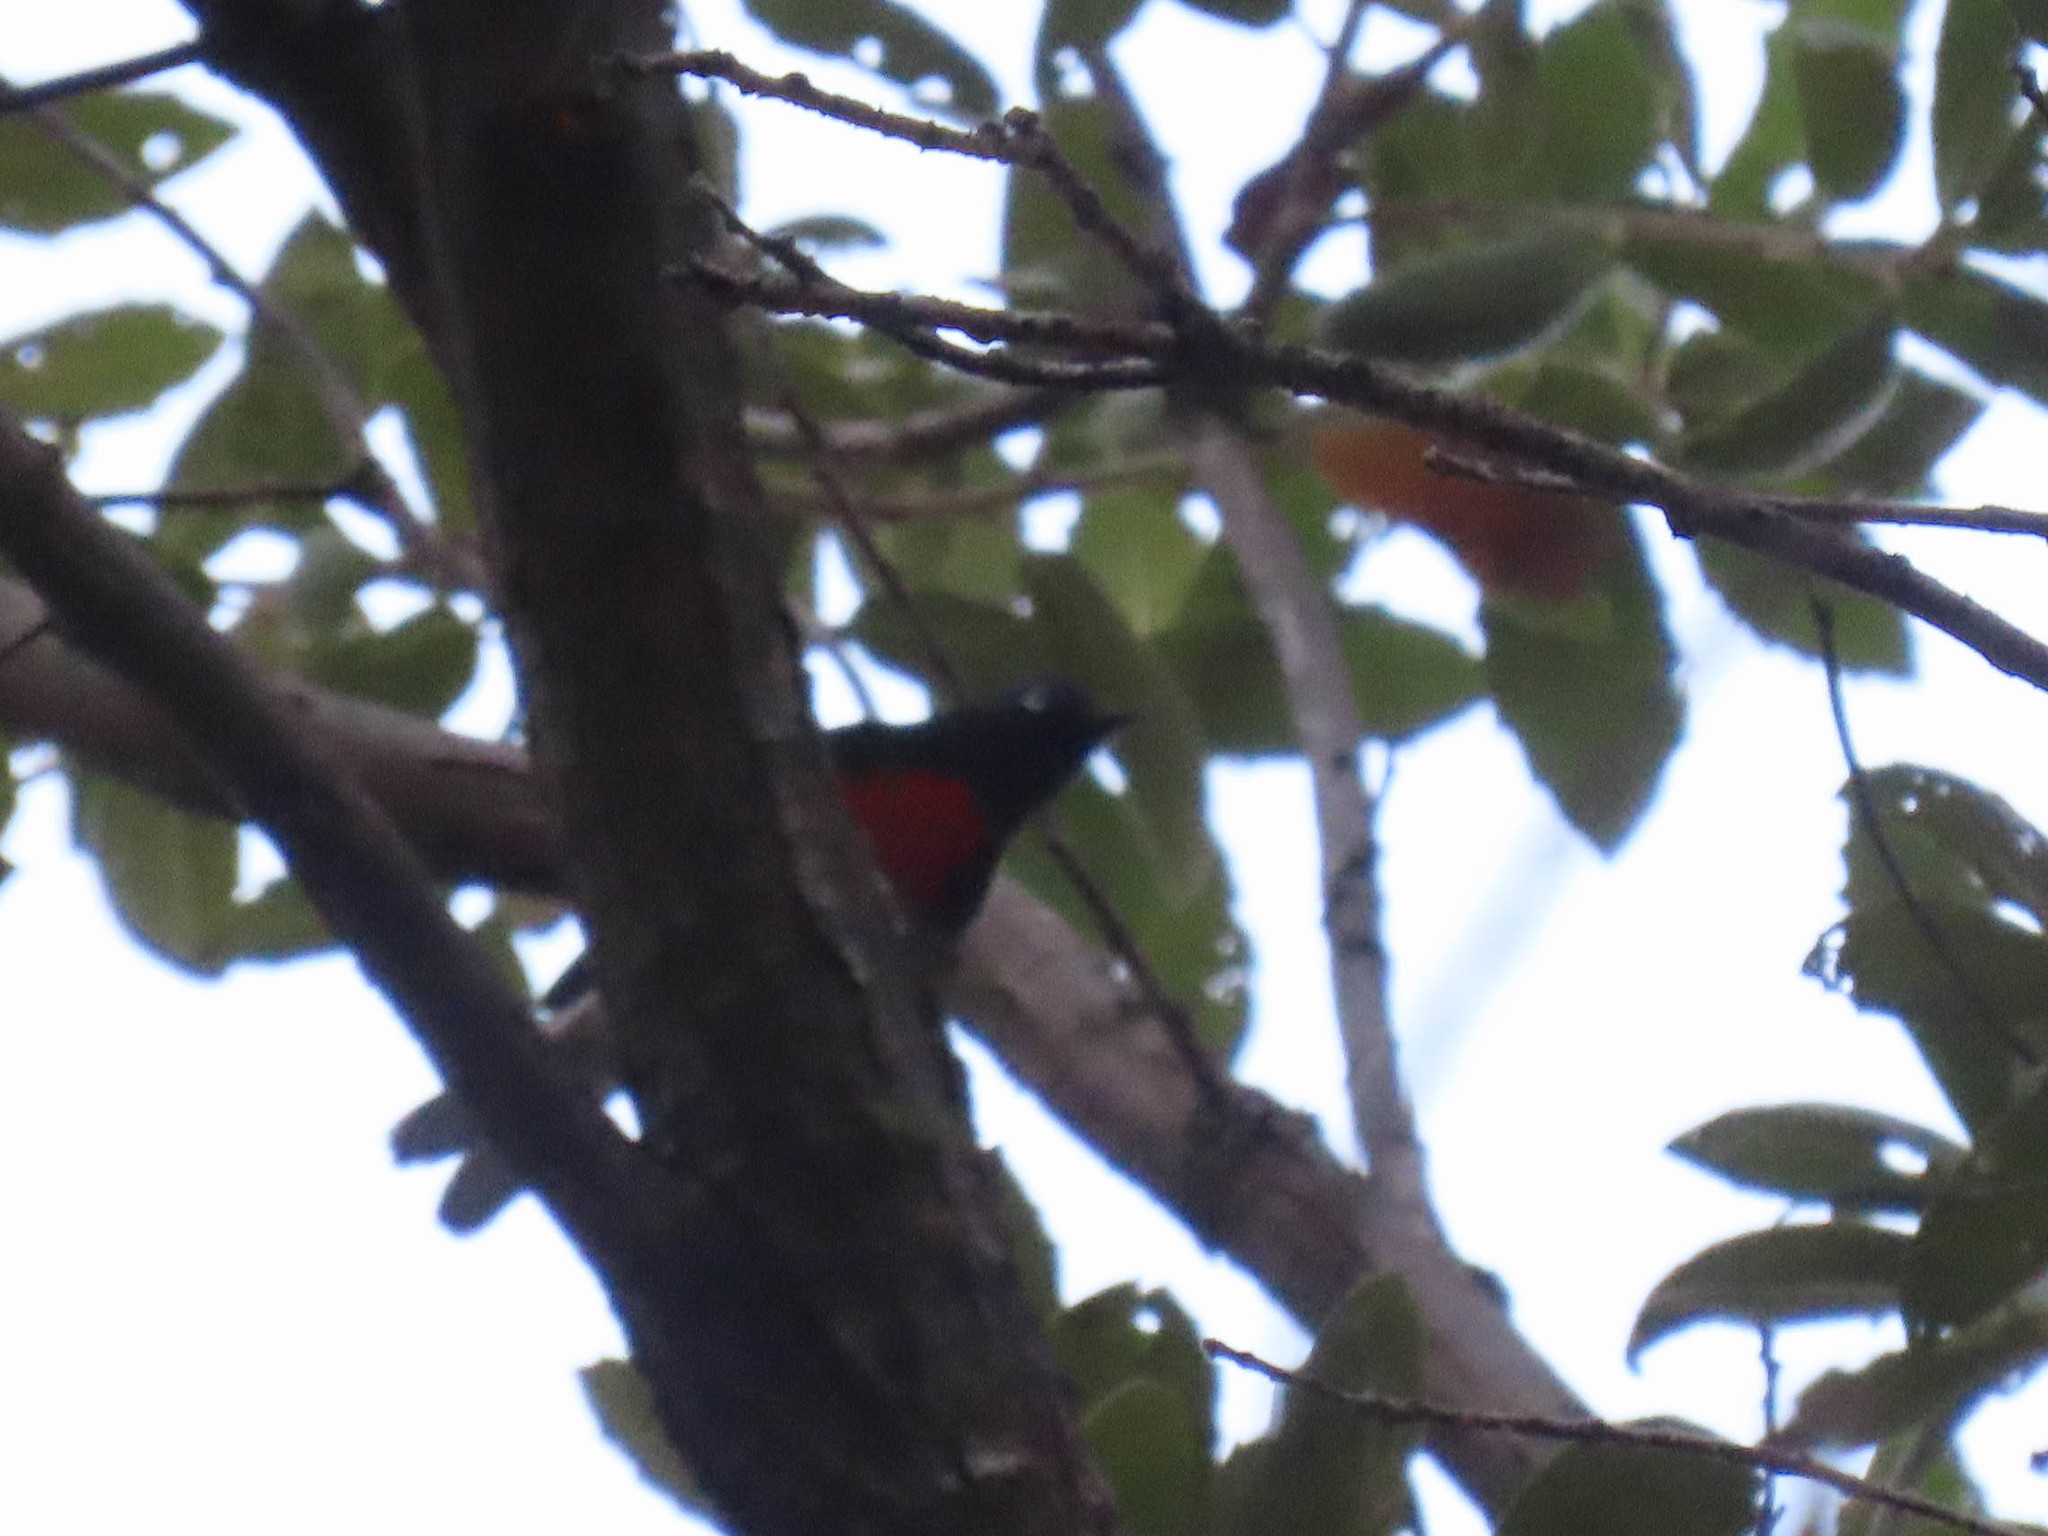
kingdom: Animalia
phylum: Chordata
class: Aves
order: Passeriformes
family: Parulidae
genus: Myioborus
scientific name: Myioborus pictus
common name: Painted whitestart
